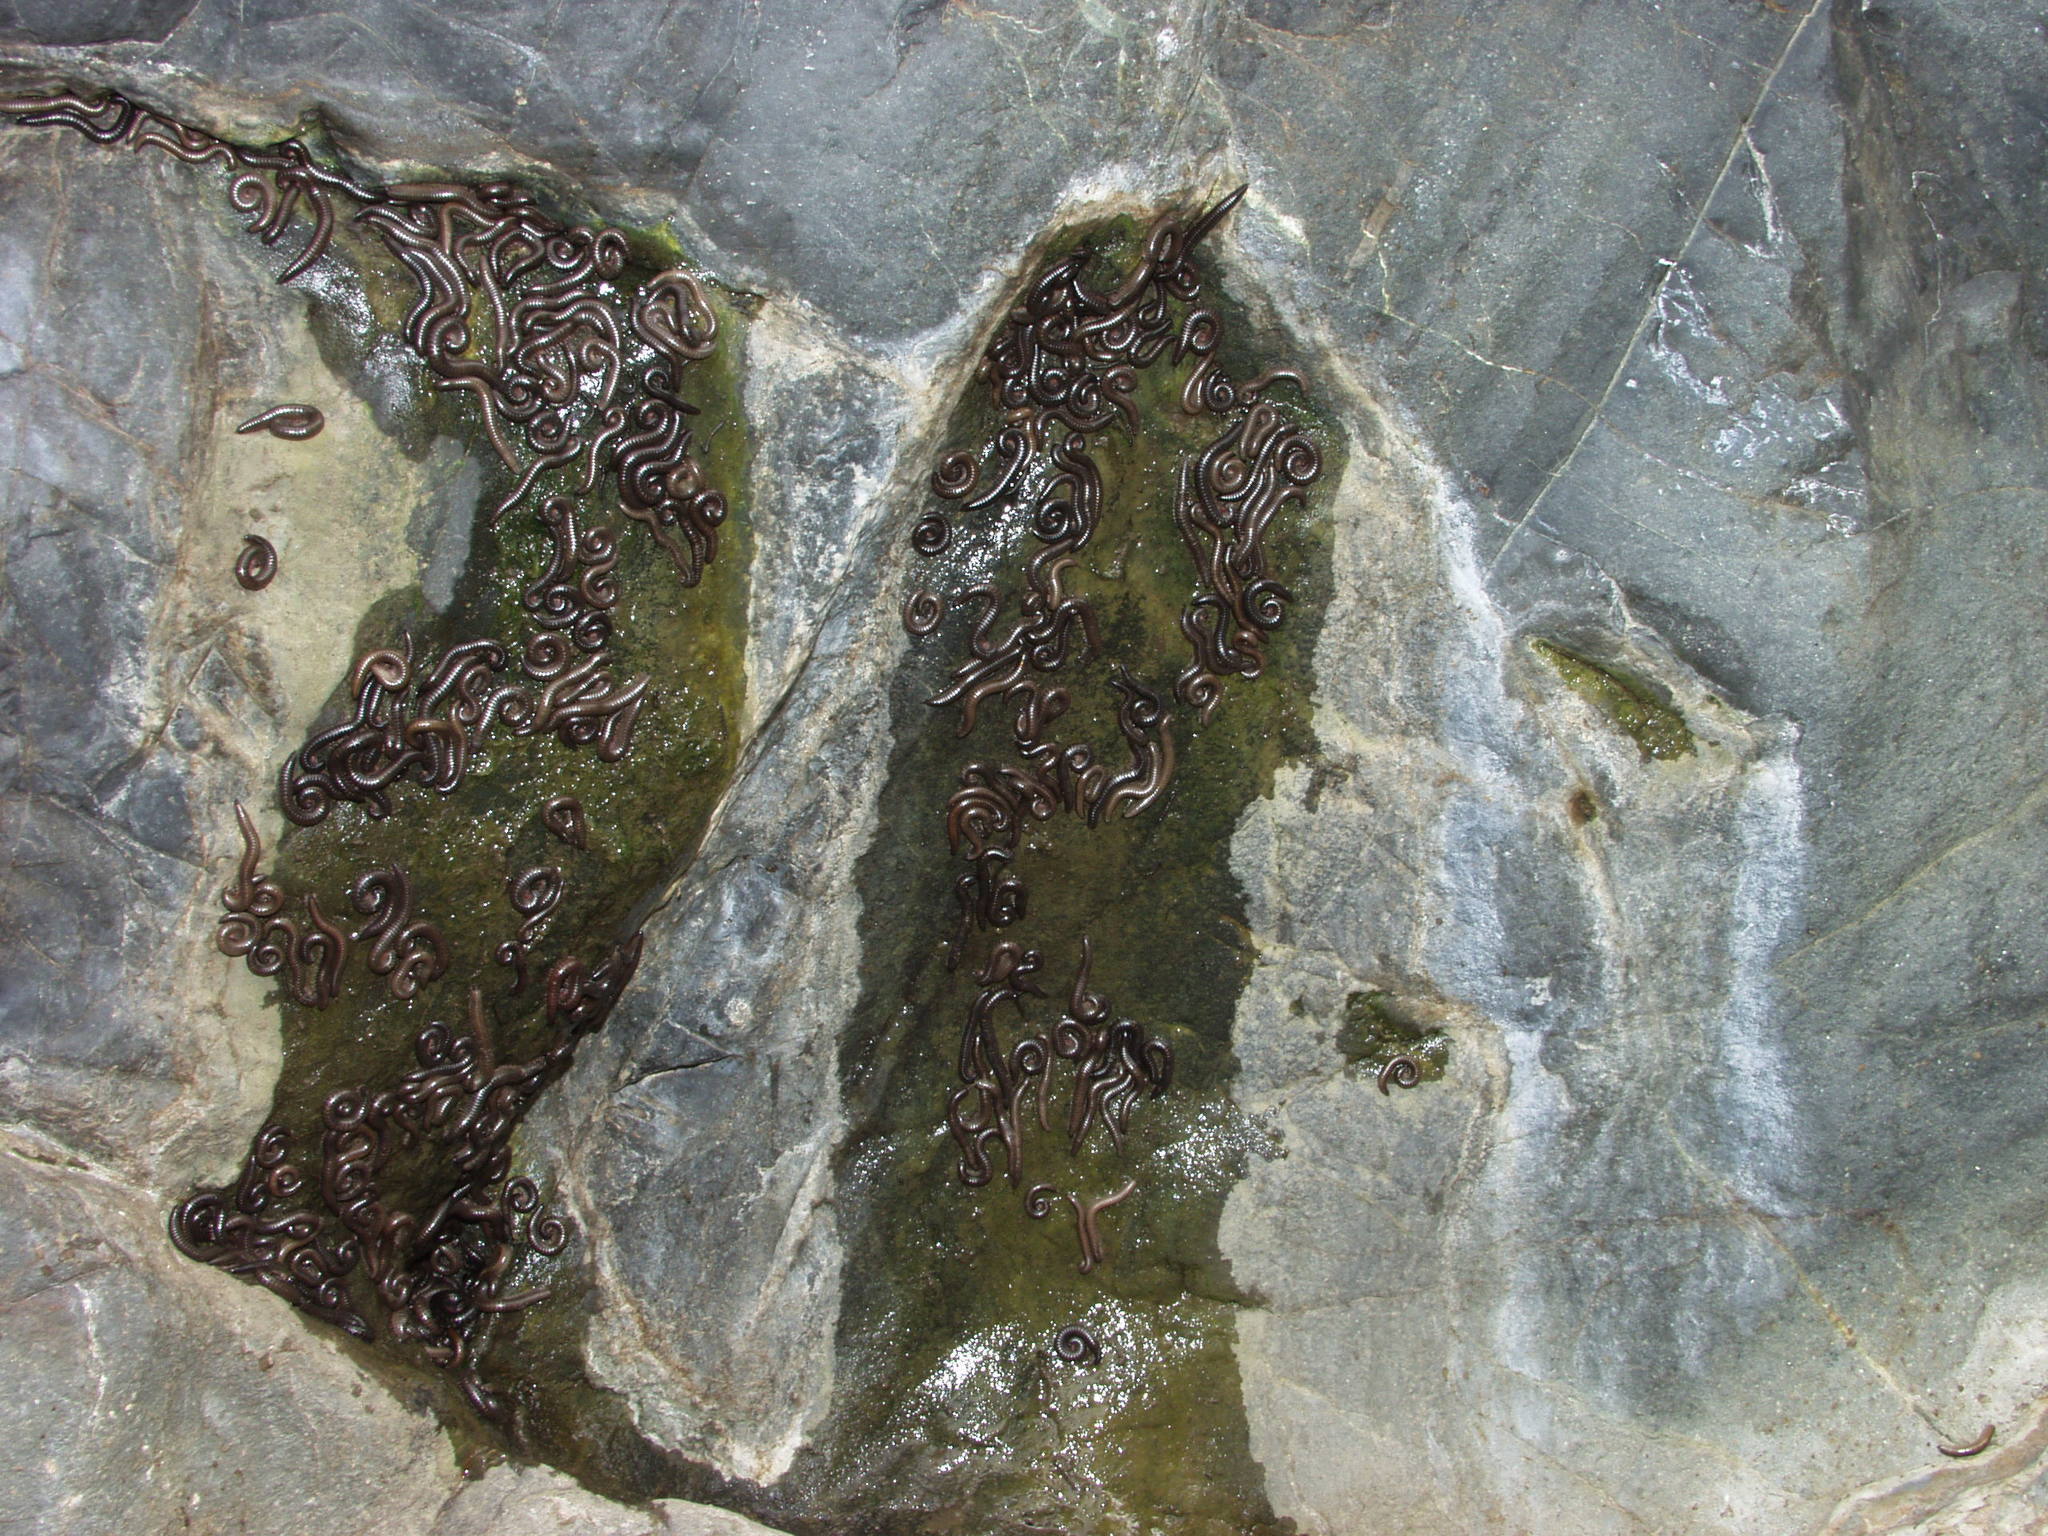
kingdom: Animalia
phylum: Arthropoda
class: Diplopoda
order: Julida
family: Julidae
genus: Ommatoiulus
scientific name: Ommatoiulus moreleti
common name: Portuguese millipede
